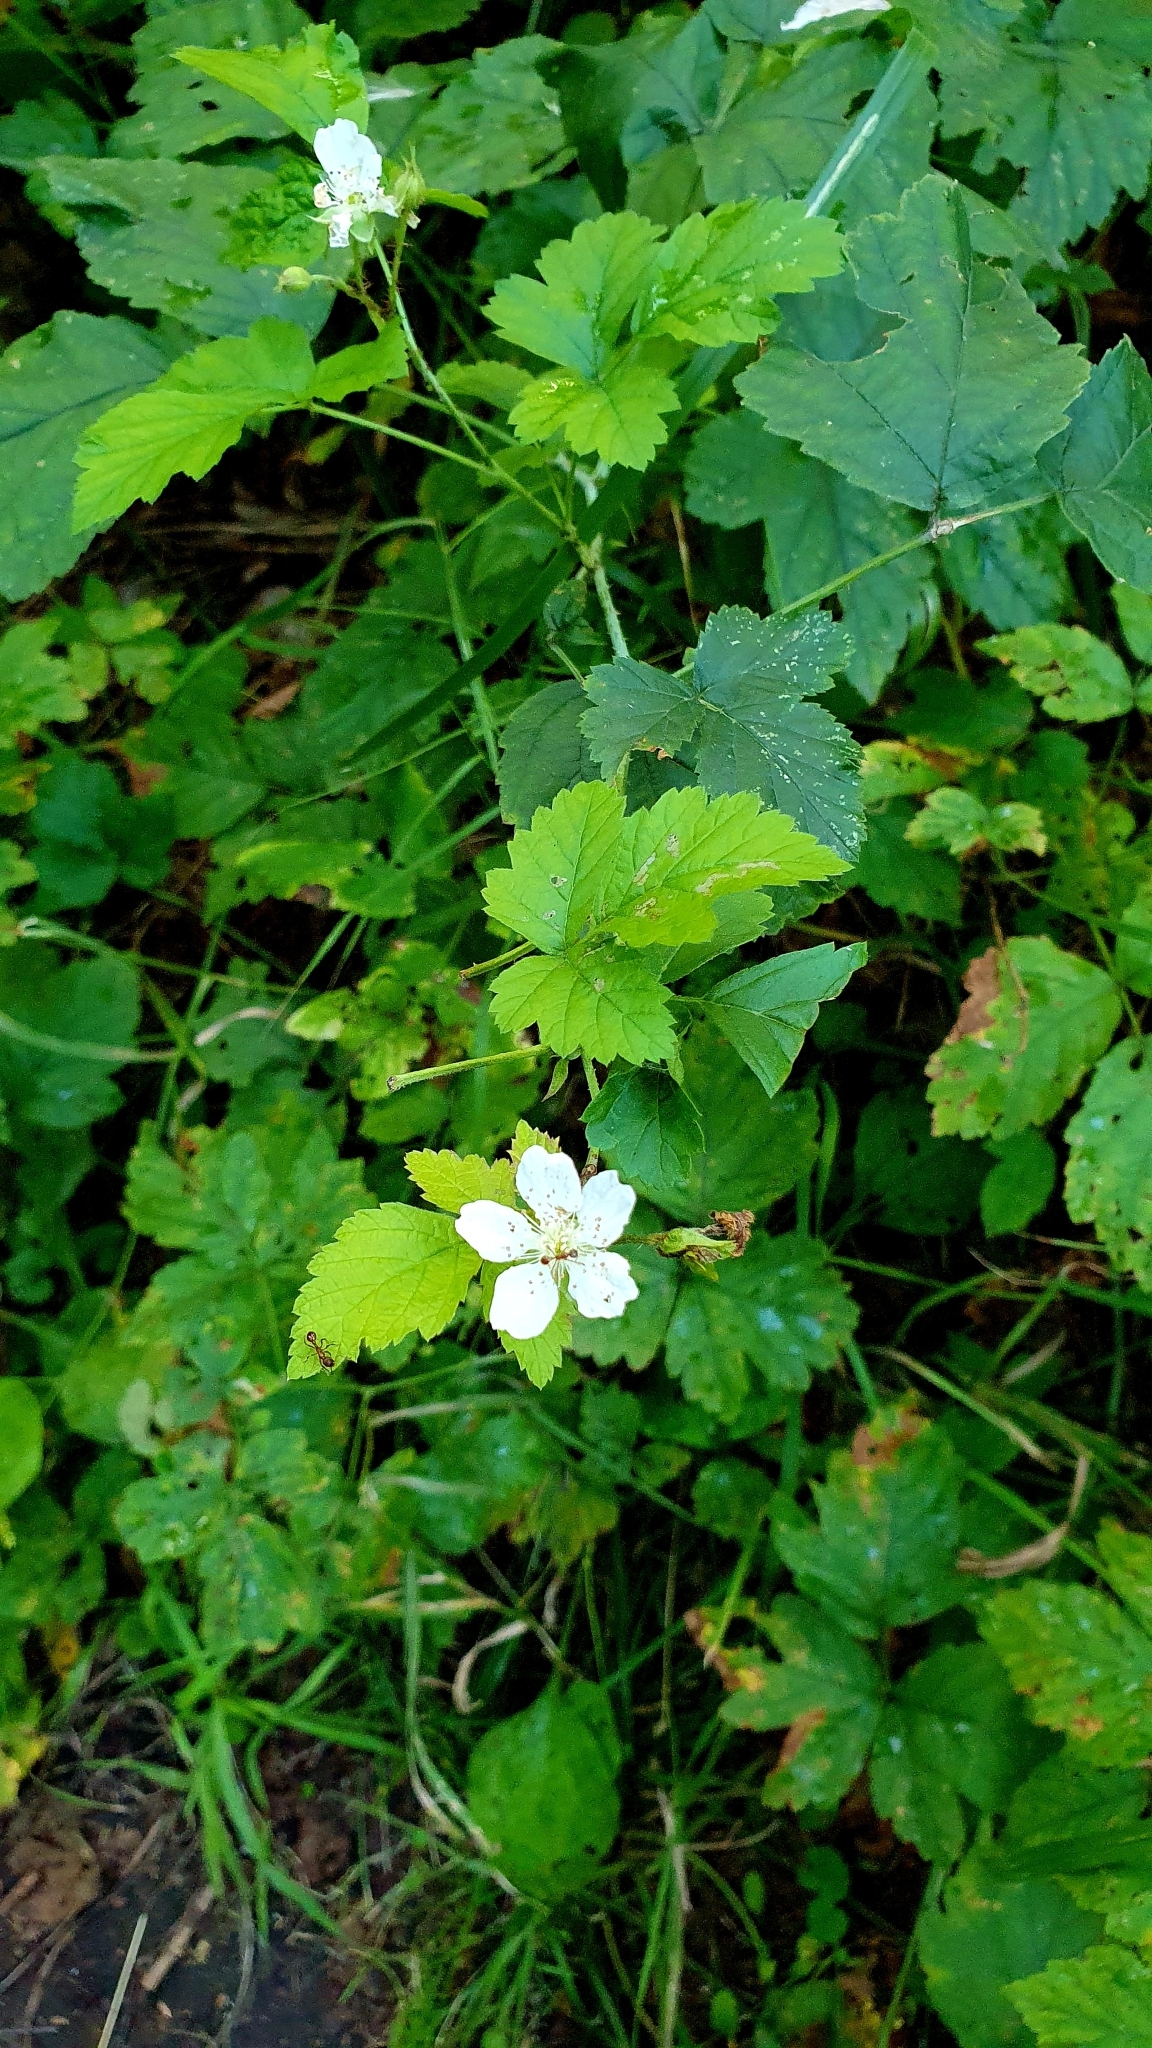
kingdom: Plantae
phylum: Tracheophyta
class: Magnoliopsida
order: Rosales
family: Rosaceae
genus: Rubus
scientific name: Rubus caesius
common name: Dewberry
